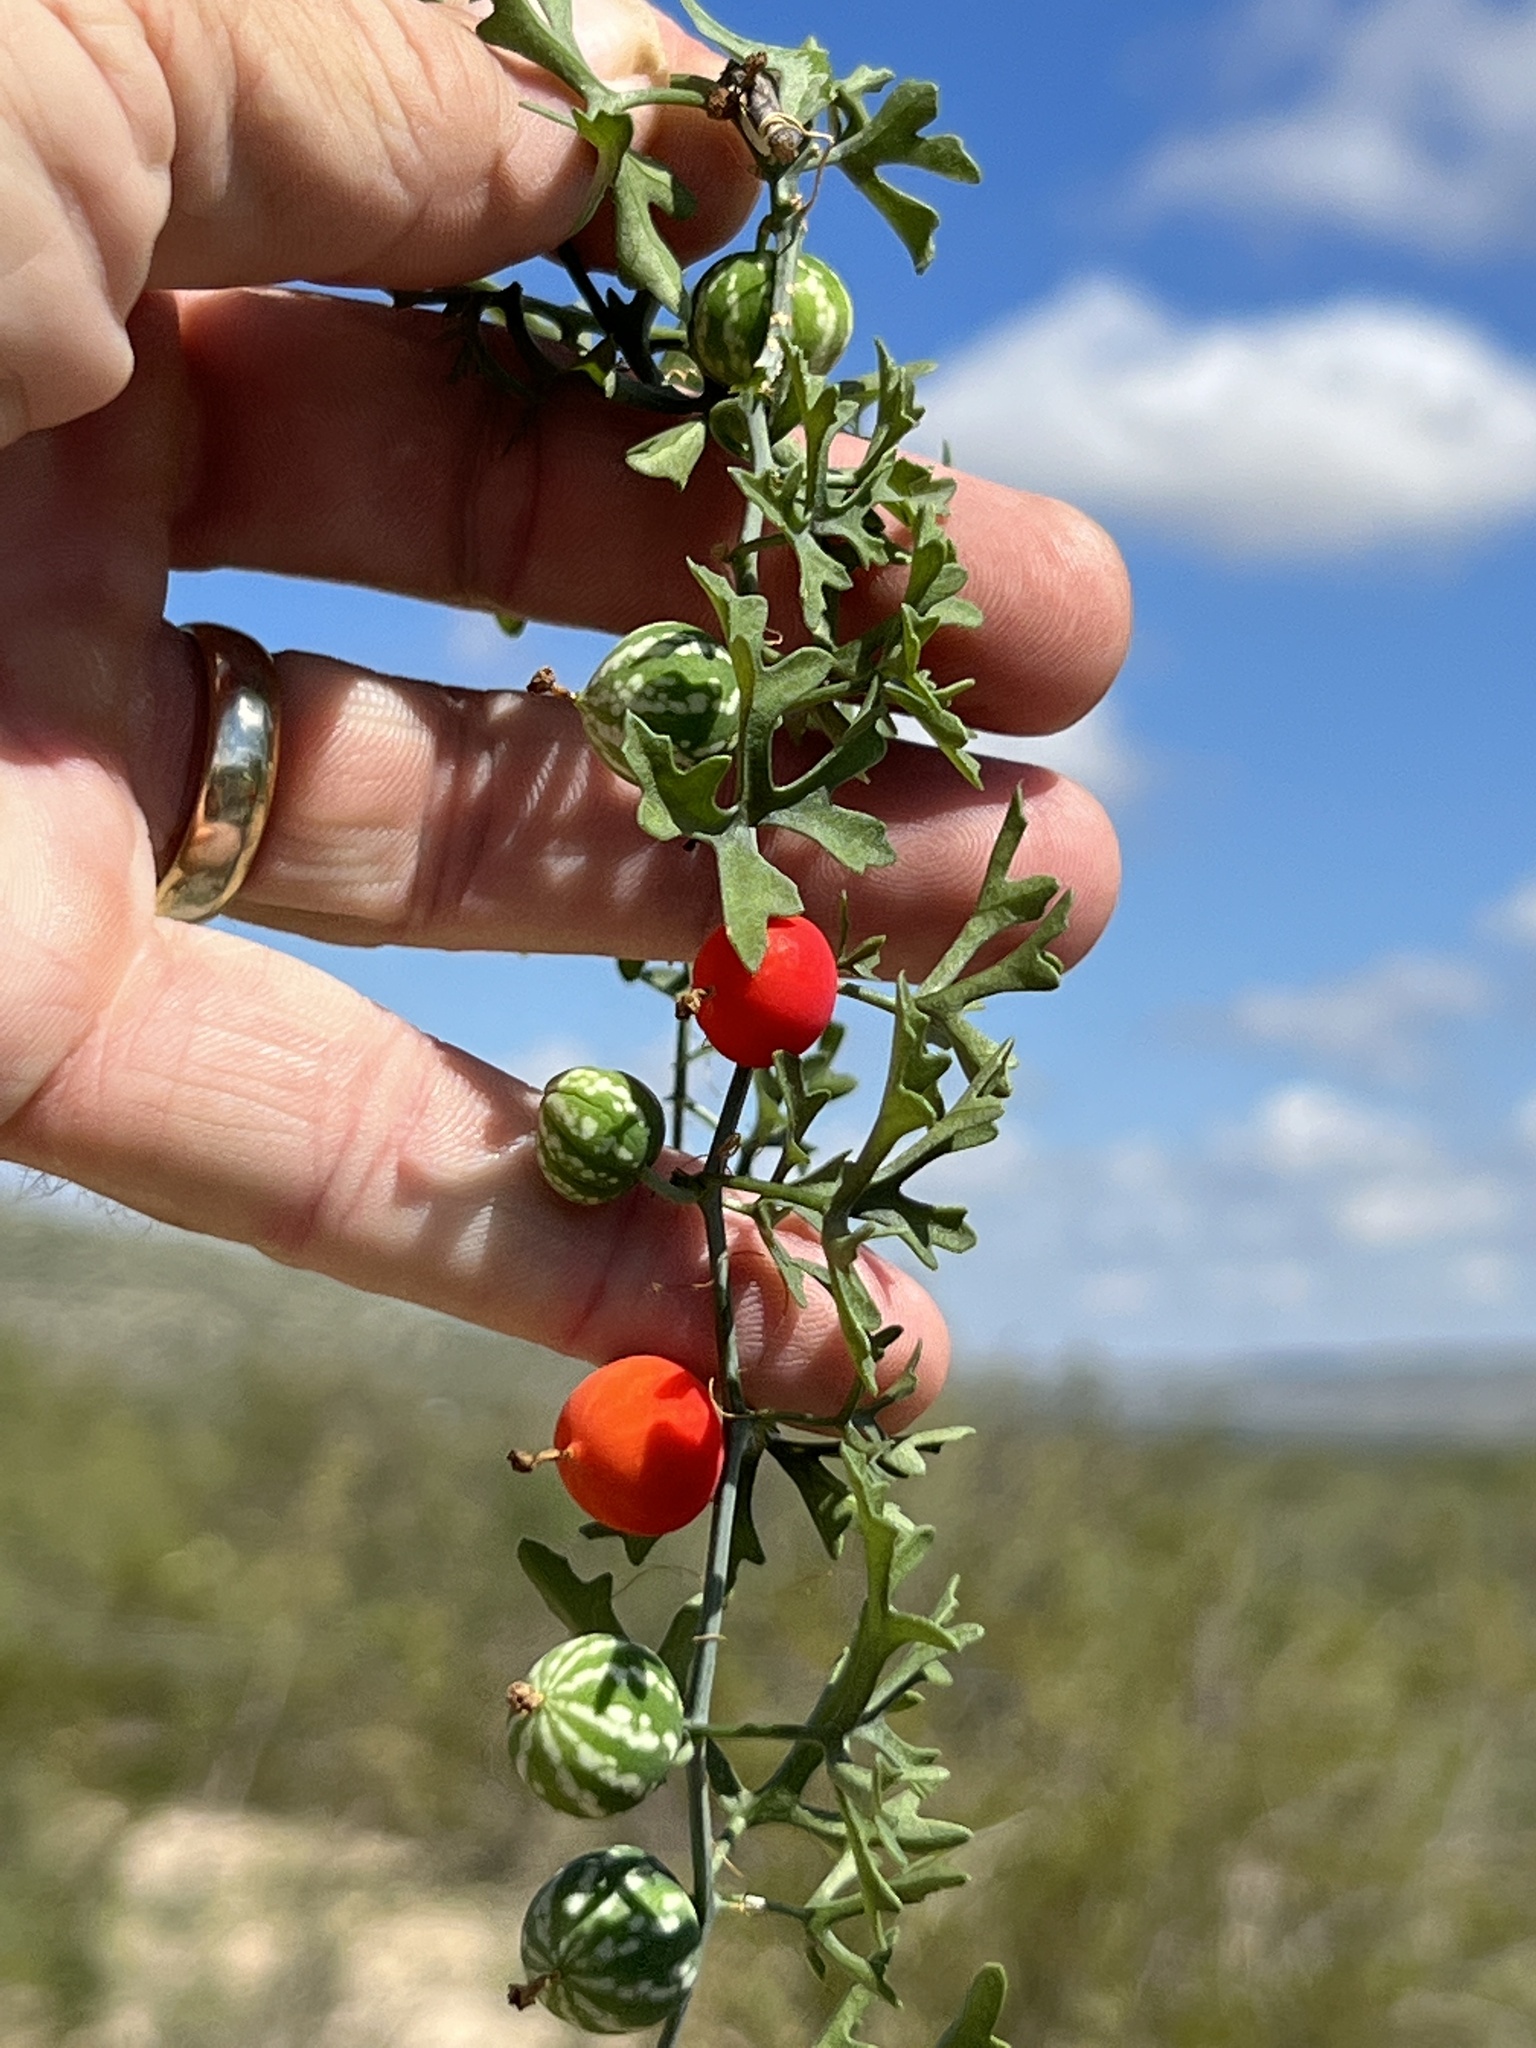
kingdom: Plantae
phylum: Tracheophyta
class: Magnoliopsida
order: Cucurbitales
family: Cucurbitaceae
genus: Ibervillea
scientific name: Ibervillea tenuisecta
